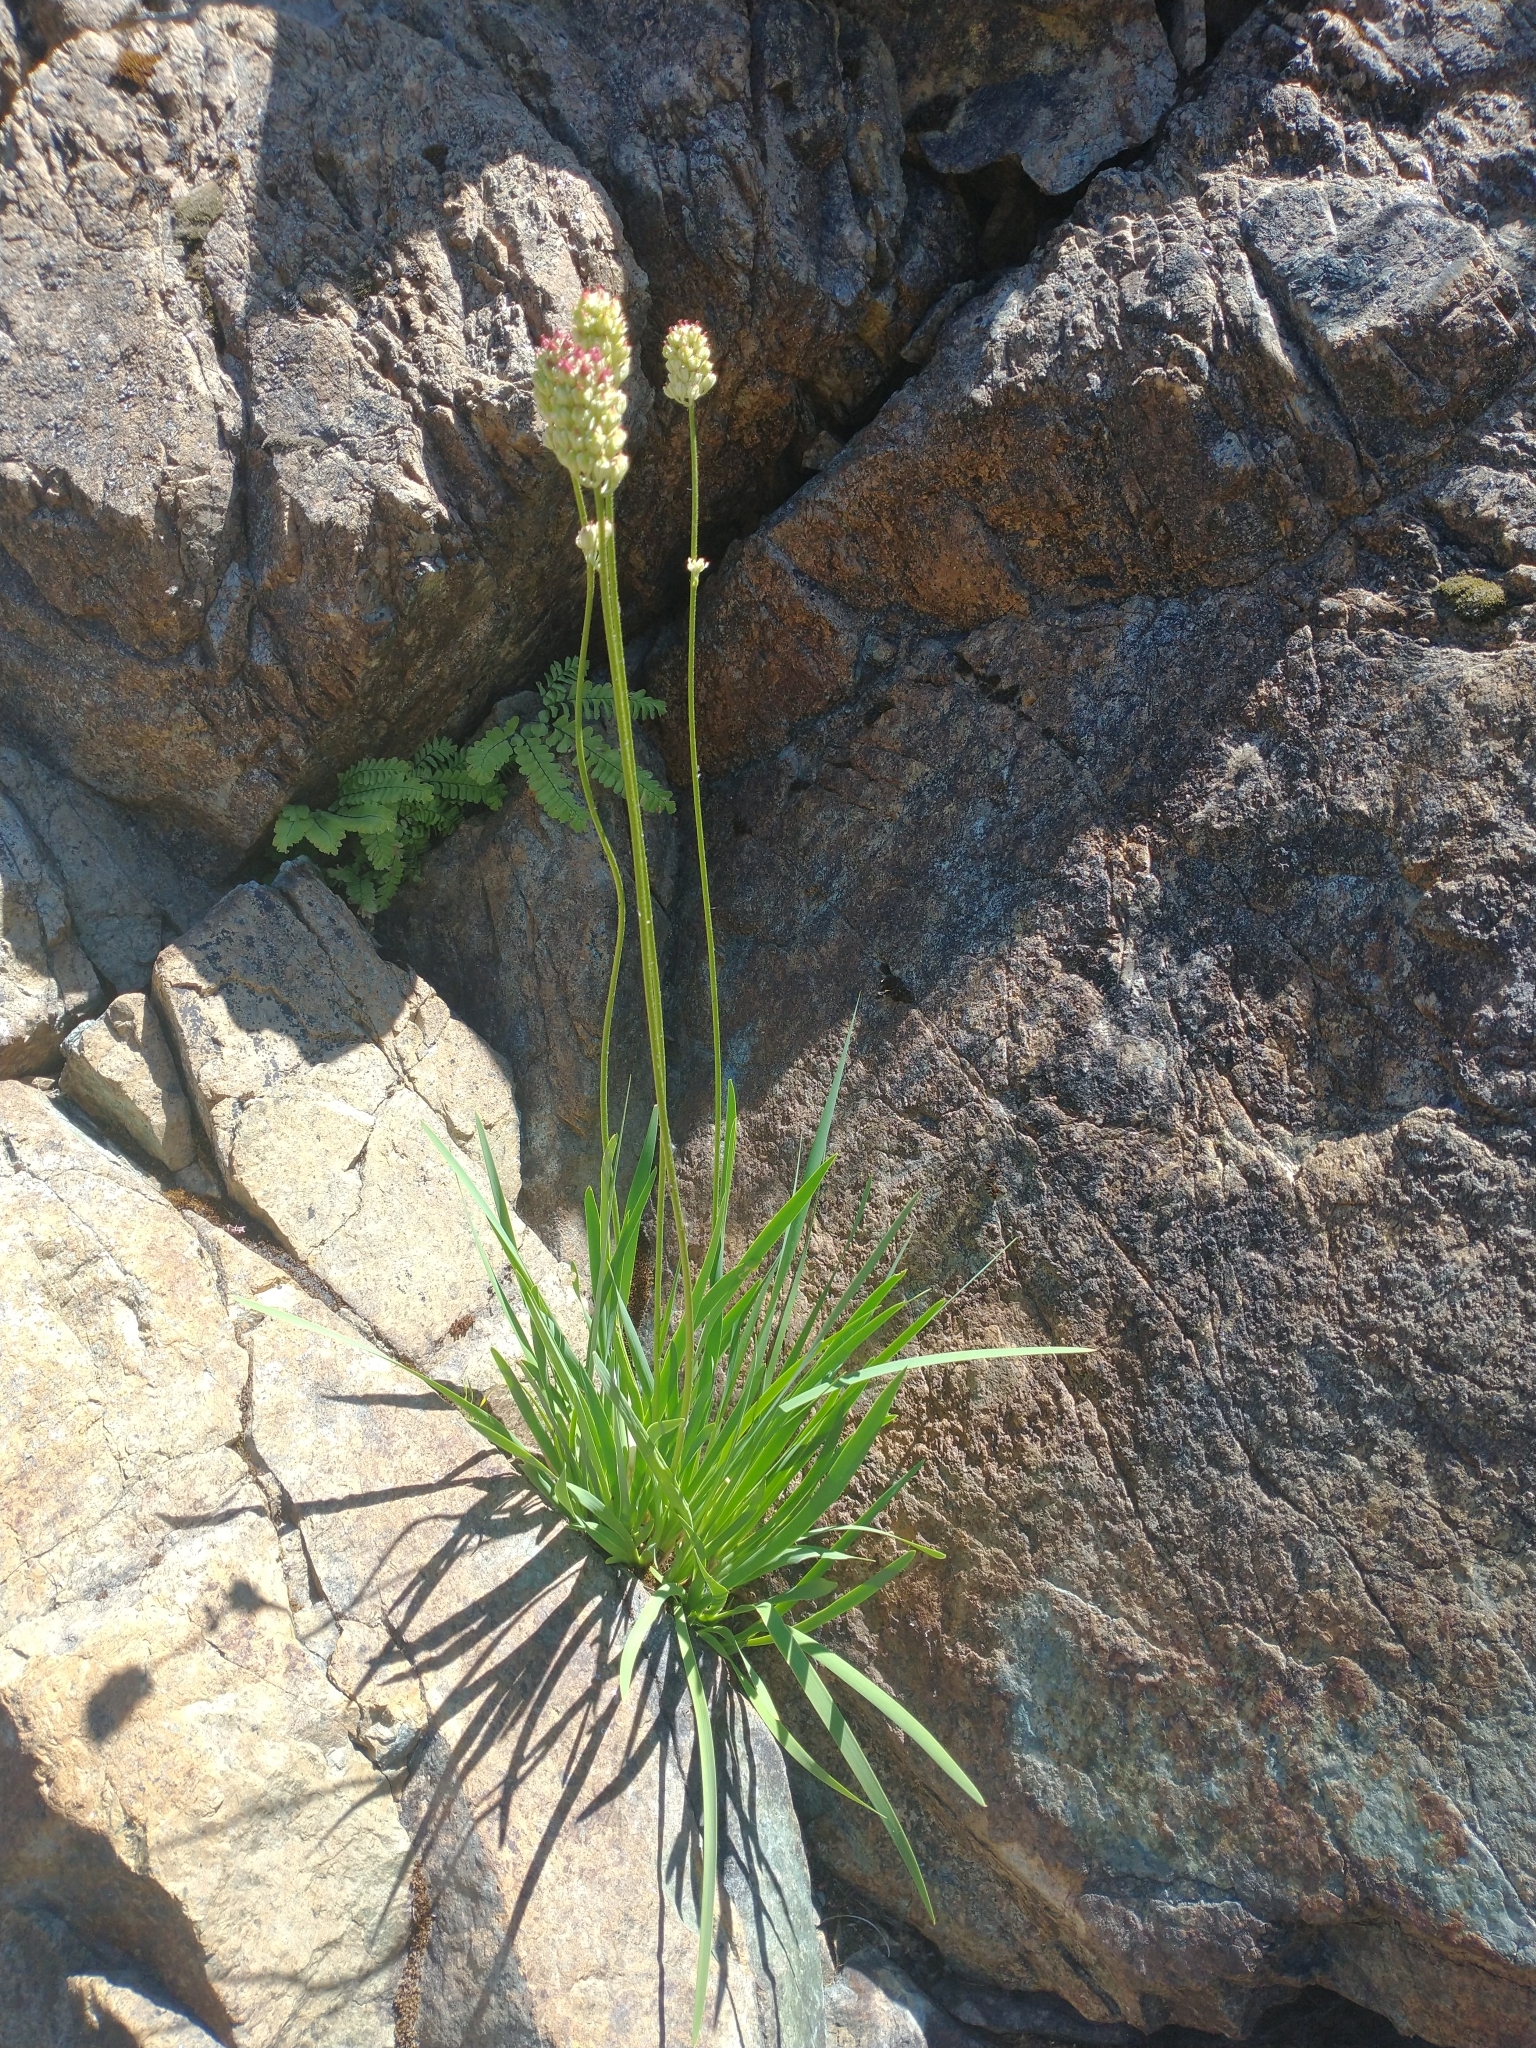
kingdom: Plantae
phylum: Tracheophyta
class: Polypodiopsida
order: Polypodiales
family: Pteridaceae
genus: Adiantum
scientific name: Adiantum aleuticum
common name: Aleutian maidenhair fern
